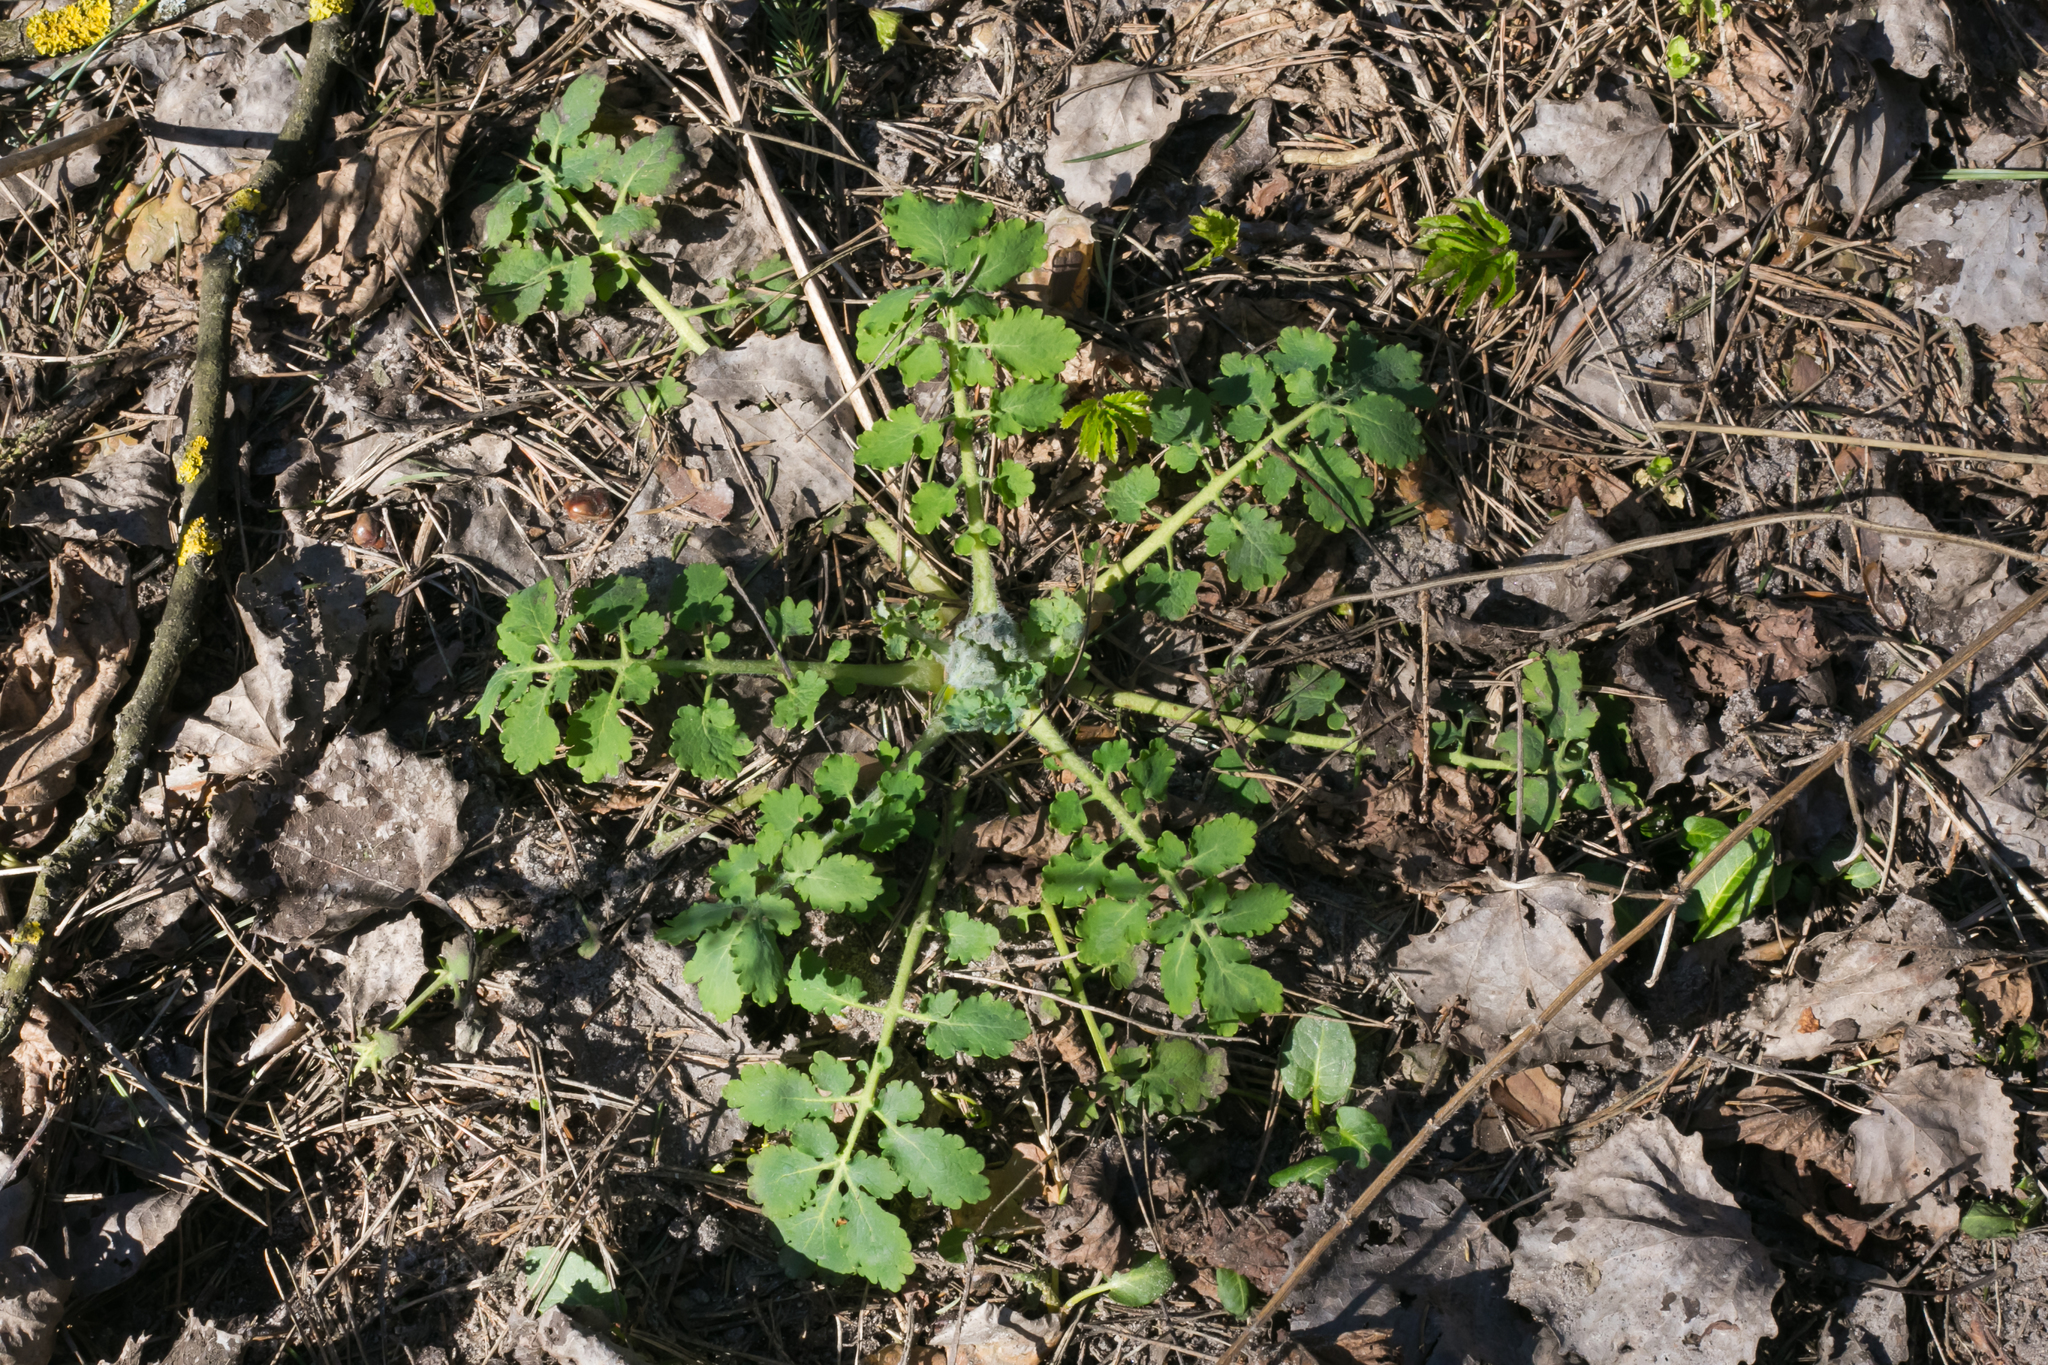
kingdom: Plantae
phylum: Tracheophyta
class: Magnoliopsida
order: Ranunculales
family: Papaveraceae
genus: Chelidonium
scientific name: Chelidonium majus
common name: Greater celandine
